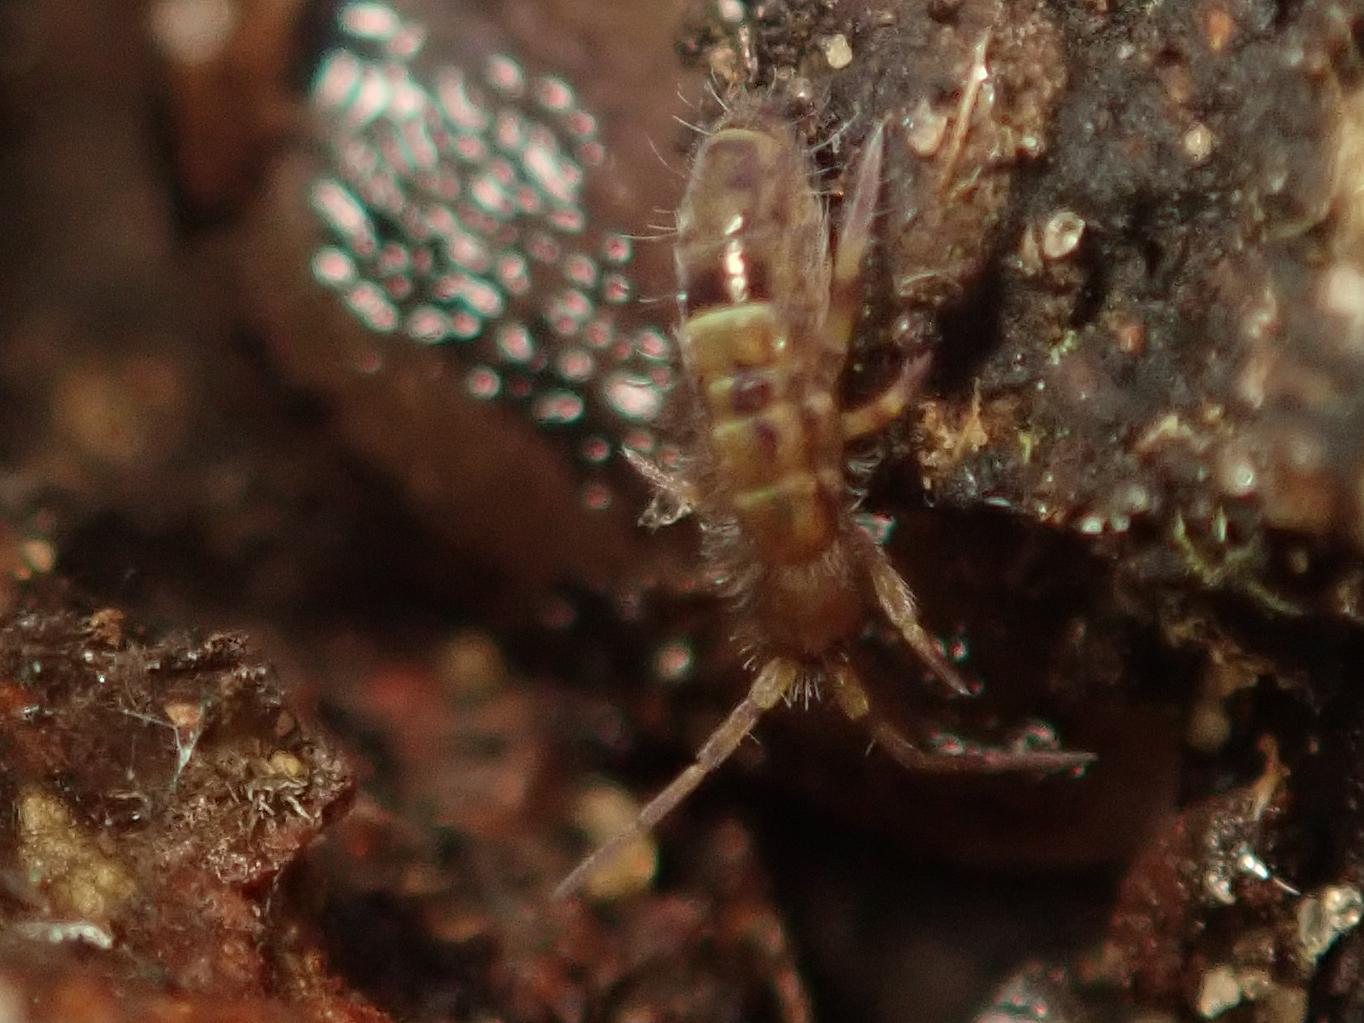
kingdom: Animalia
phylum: Arthropoda
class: Collembola
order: Entomobryomorpha
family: Orchesellidae
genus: Orchesella
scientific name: Orchesella cincta
